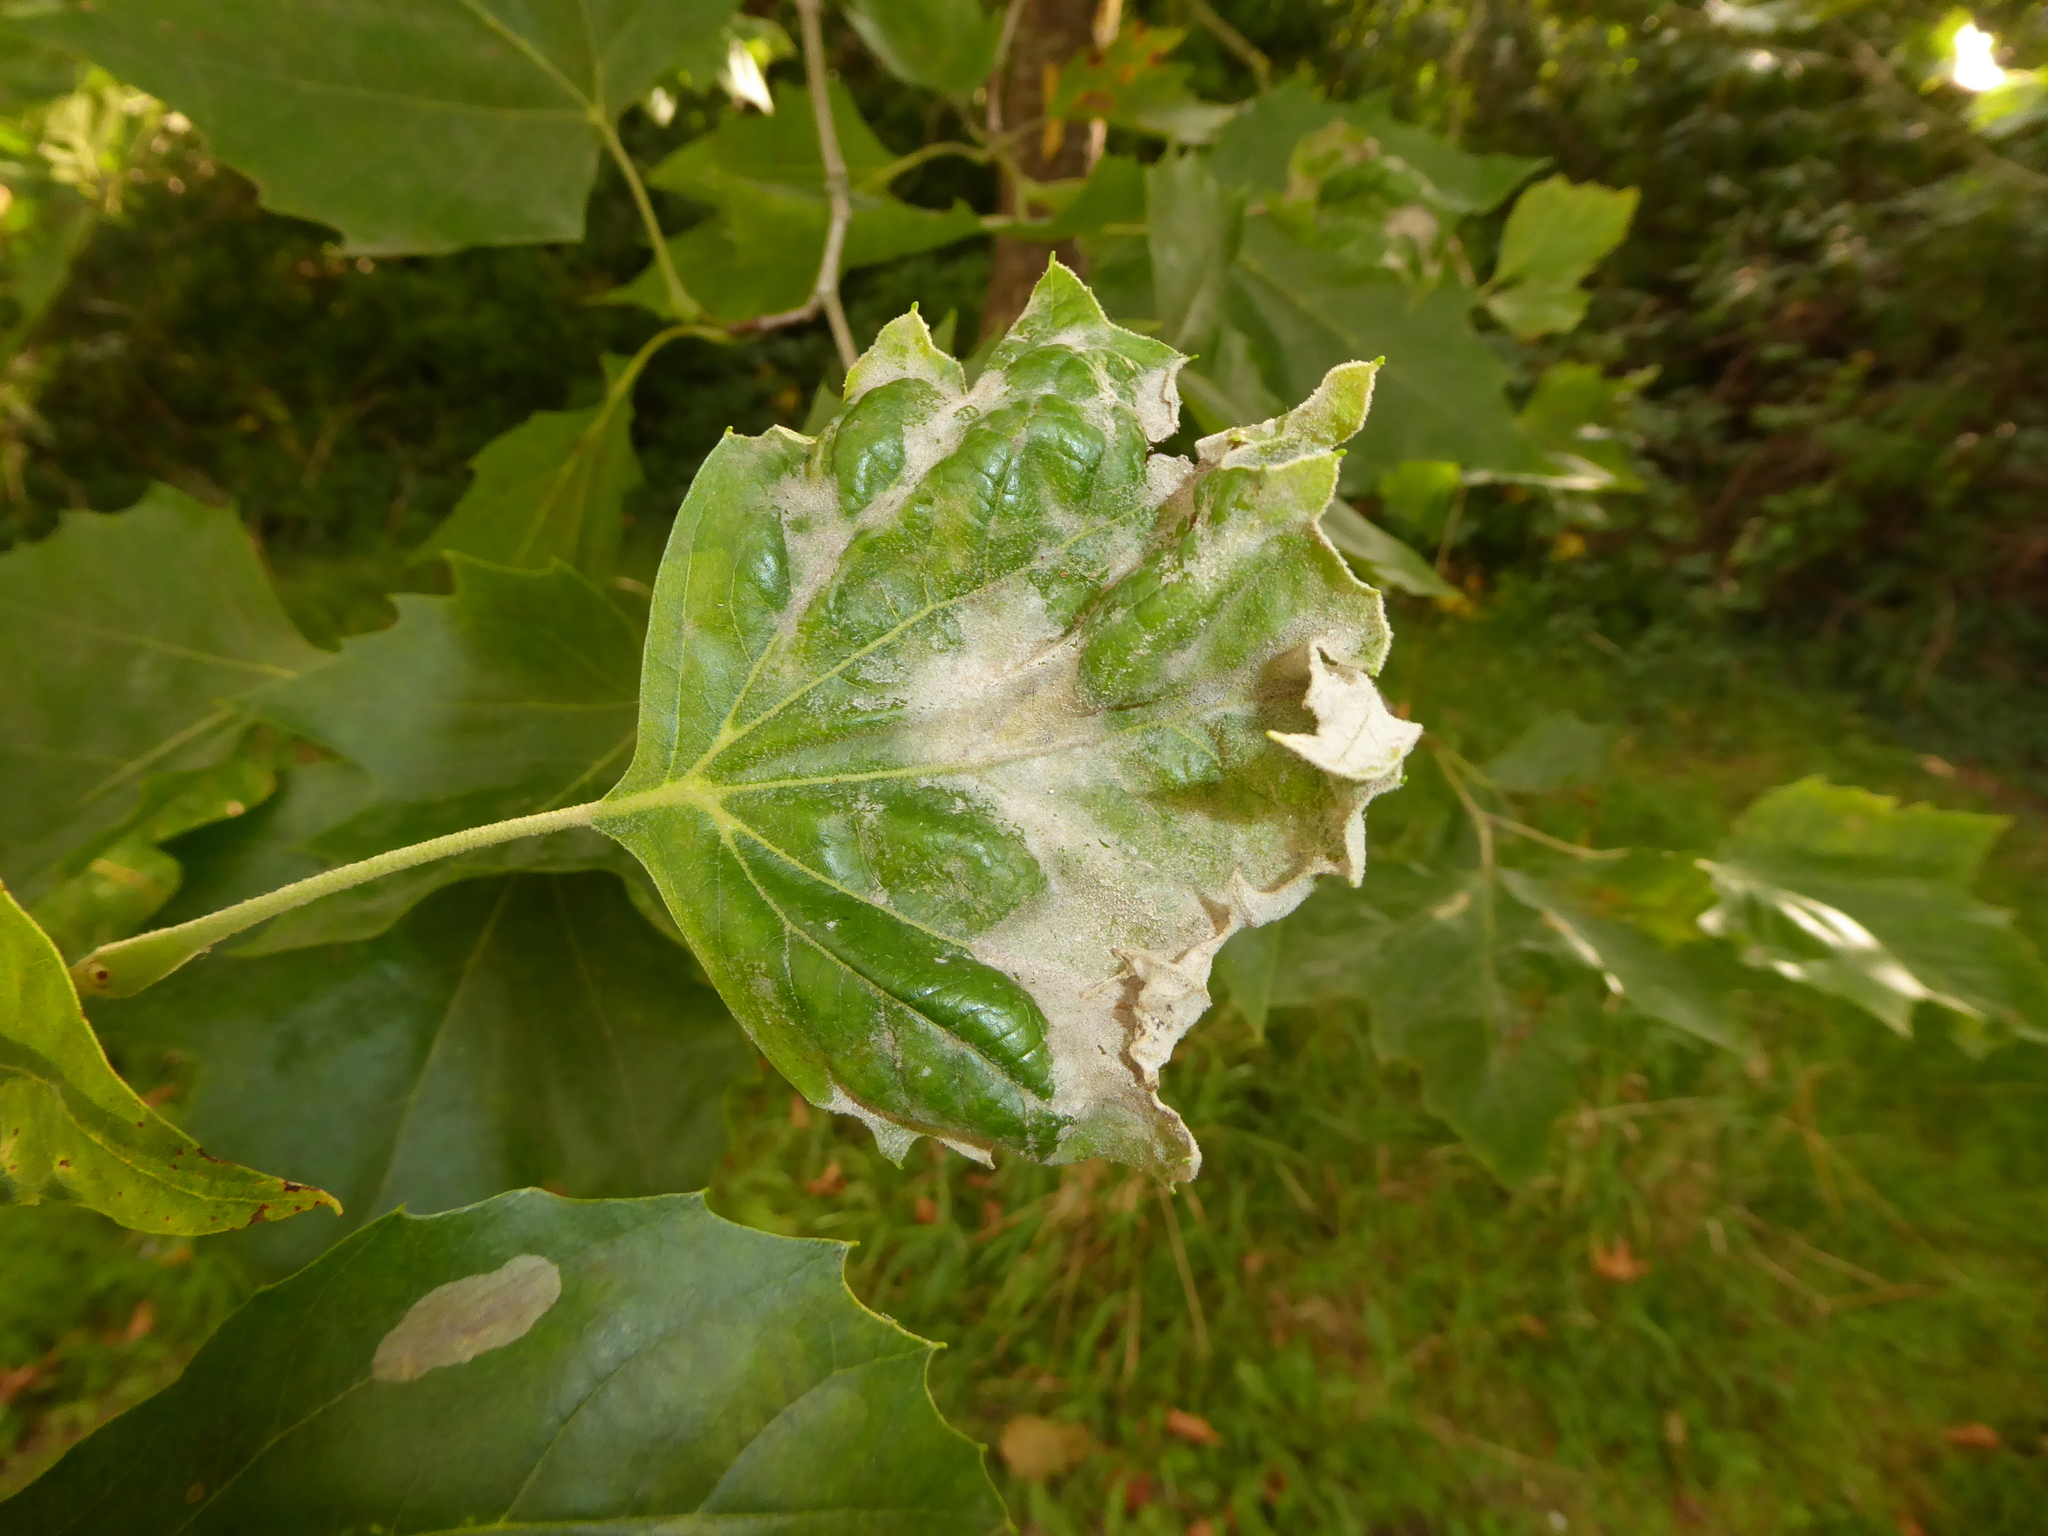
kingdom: Fungi
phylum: Ascomycota
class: Leotiomycetes
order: Helotiales
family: Erysiphaceae
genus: Erysiphe
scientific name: Erysiphe platani
